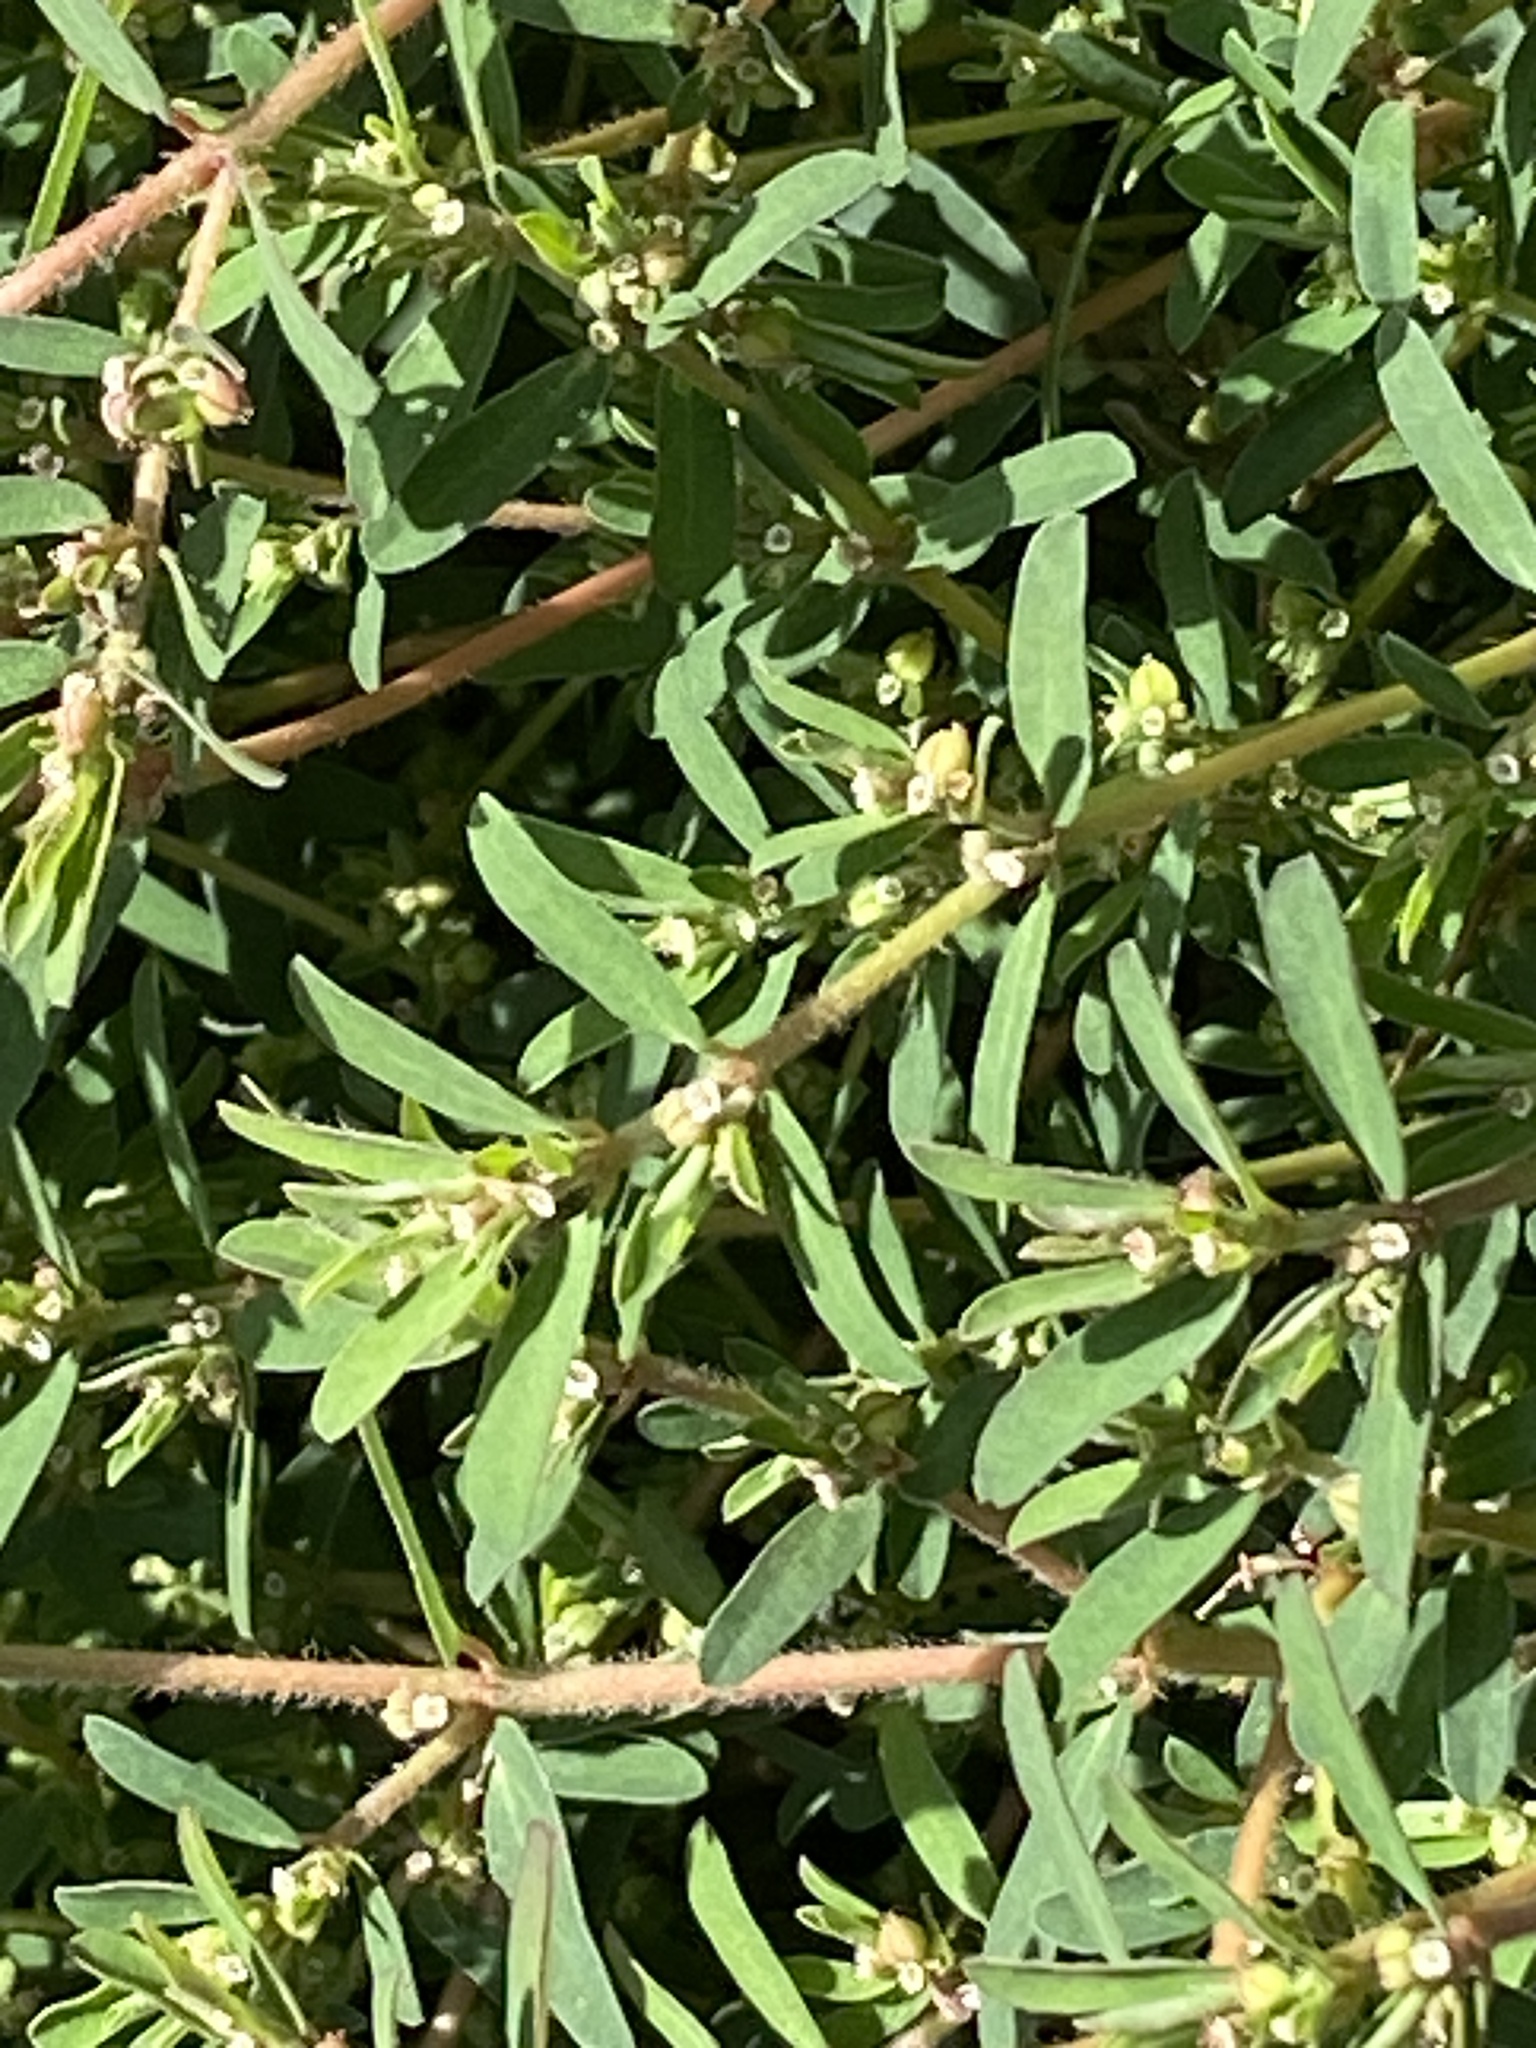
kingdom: Plantae
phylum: Tracheophyta
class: Magnoliopsida
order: Malpighiales
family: Euphorbiaceae
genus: Euphorbia
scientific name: Euphorbia maculata
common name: Spotted spurge
